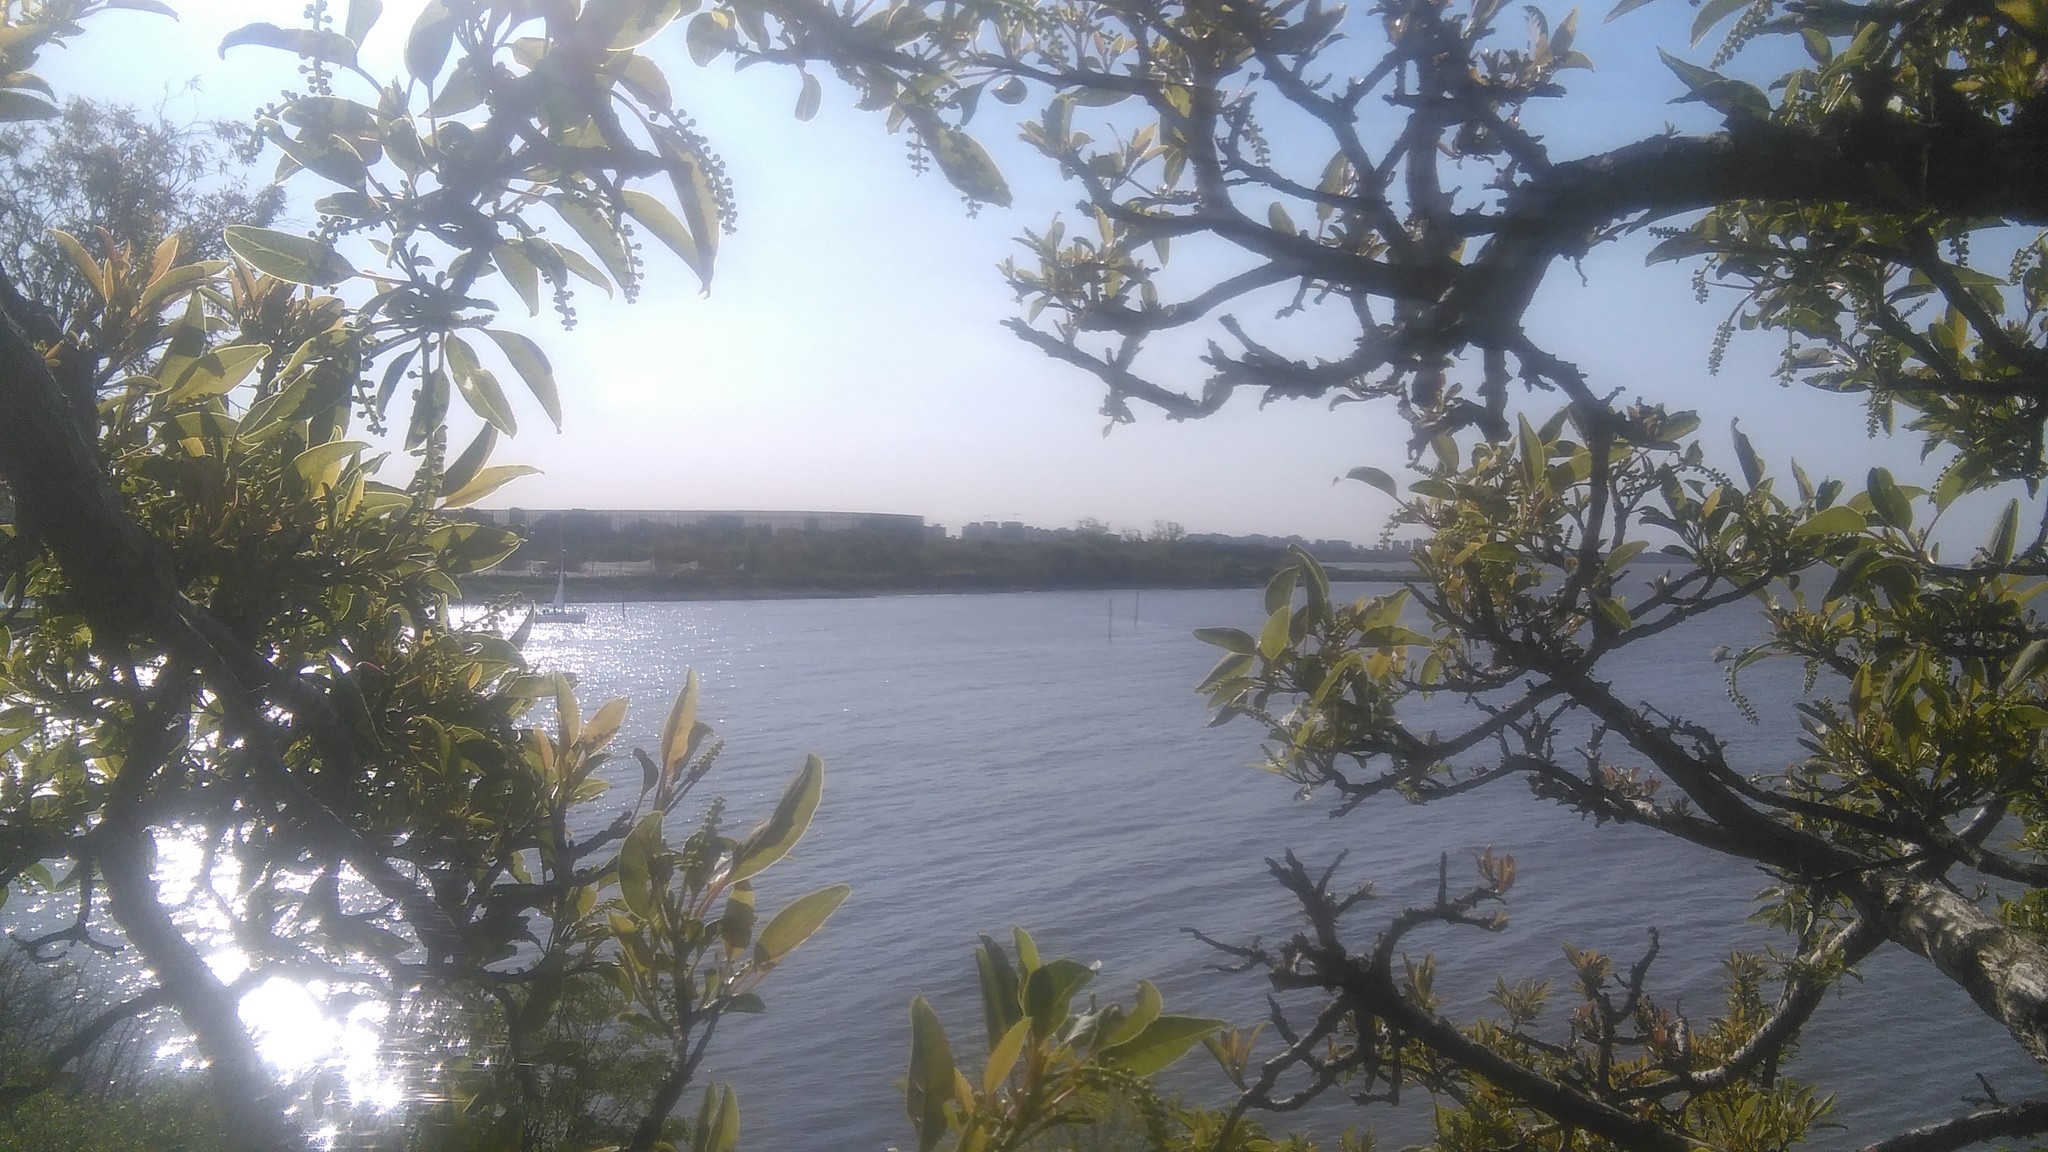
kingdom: Plantae
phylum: Tracheophyta
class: Magnoliopsida
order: Caryophyllales
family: Phytolaccaceae
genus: Phytolacca
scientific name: Phytolacca dioica
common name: Pokeweed
